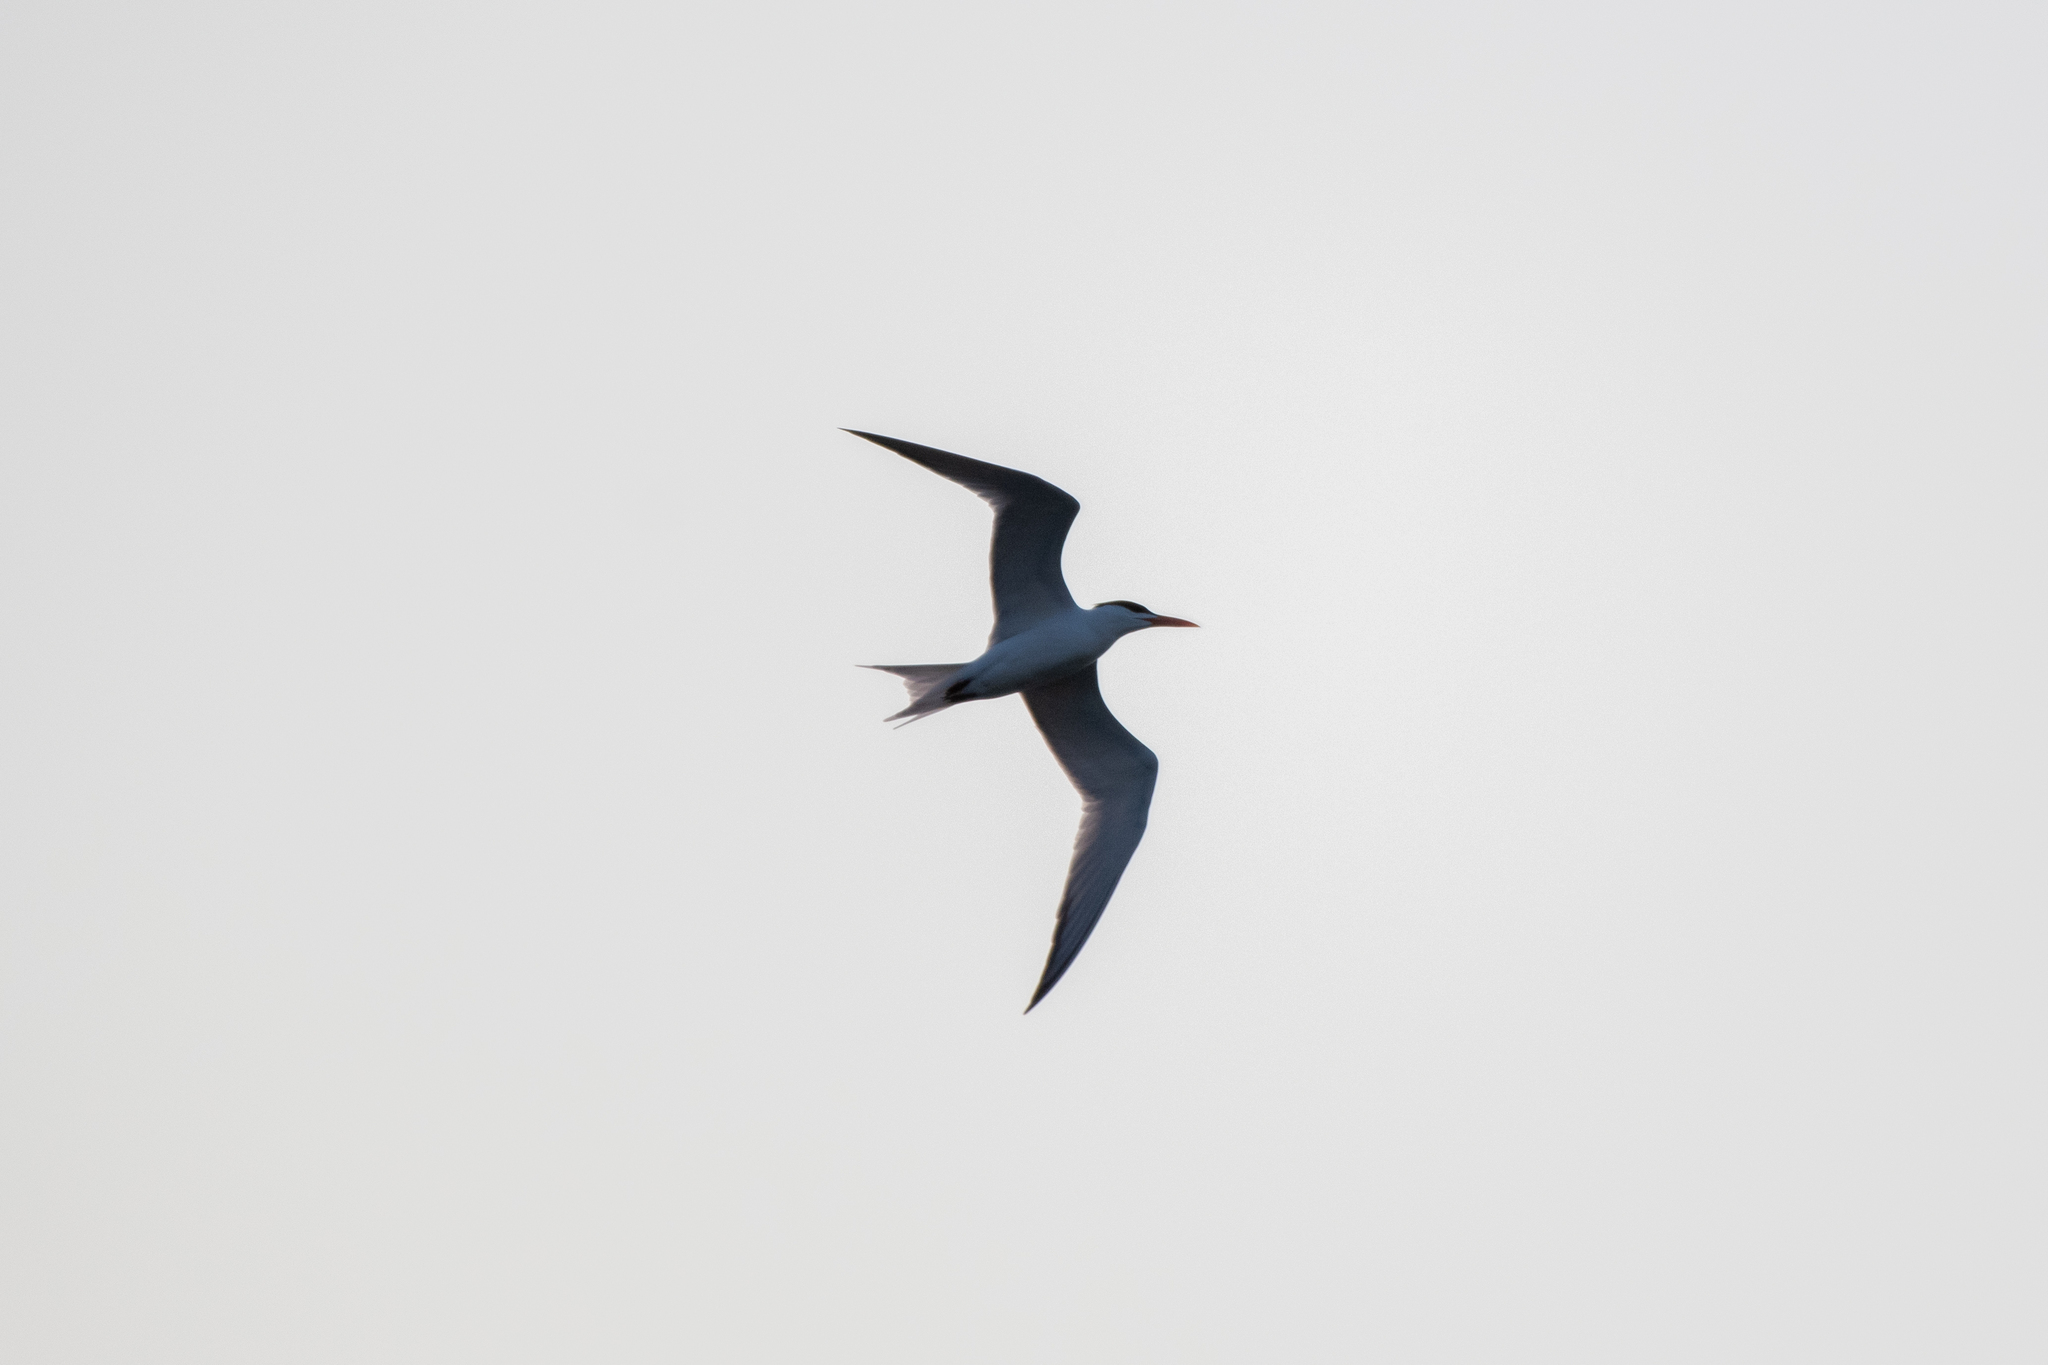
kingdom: Animalia
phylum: Chordata
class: Aves
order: Charadriiformes
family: Laridae
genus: Thalasseus
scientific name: Thalasseus maximus
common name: Royal tern
